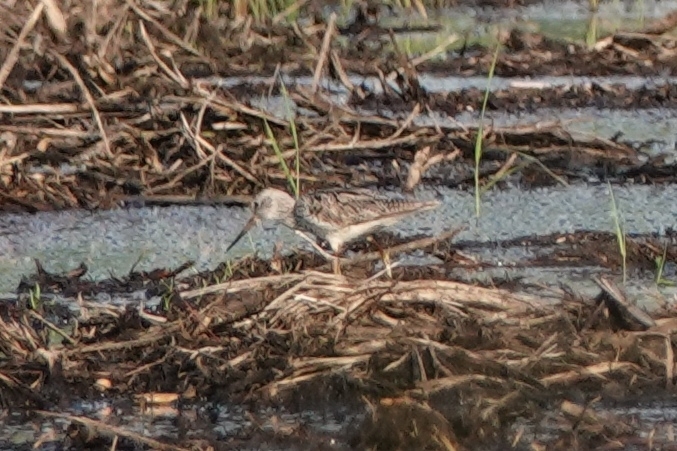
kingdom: Animalia
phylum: Chordata
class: Aves
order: Charadriiformes
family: Scolopacidae
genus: Tringa
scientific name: Tringa nebularia
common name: Common greenshank
